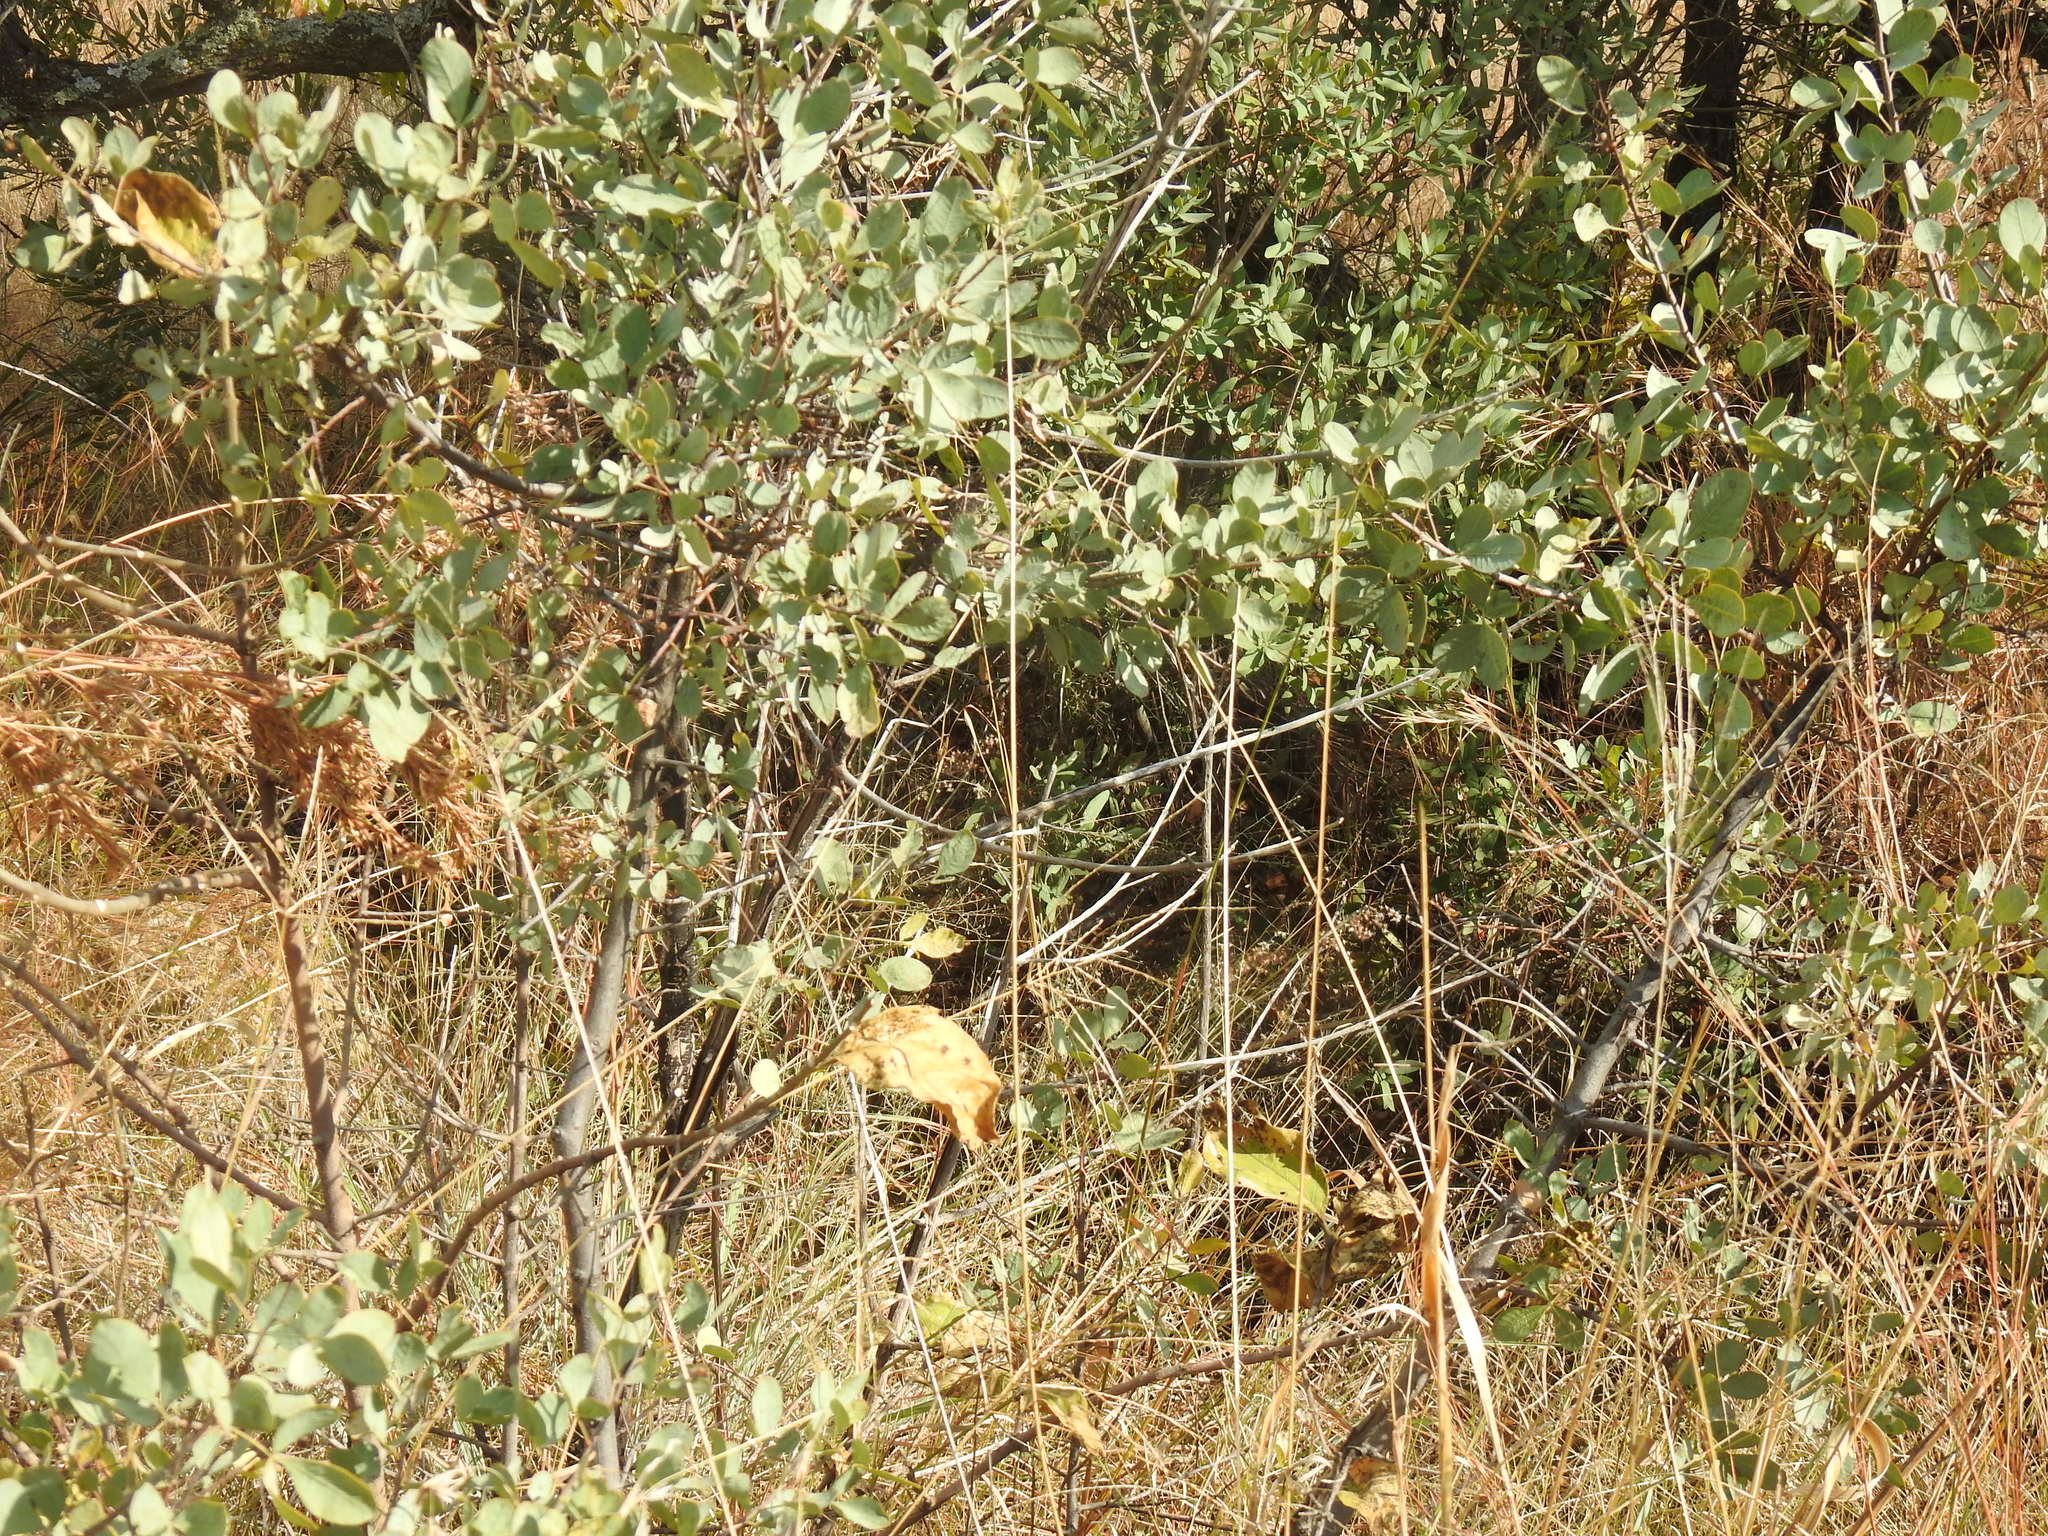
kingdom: Plantae
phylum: Tracheophyta
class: Magnoliopsida
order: Sapindales
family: Anacardiaceae
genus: Searsia
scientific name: Searsia zeyheri
